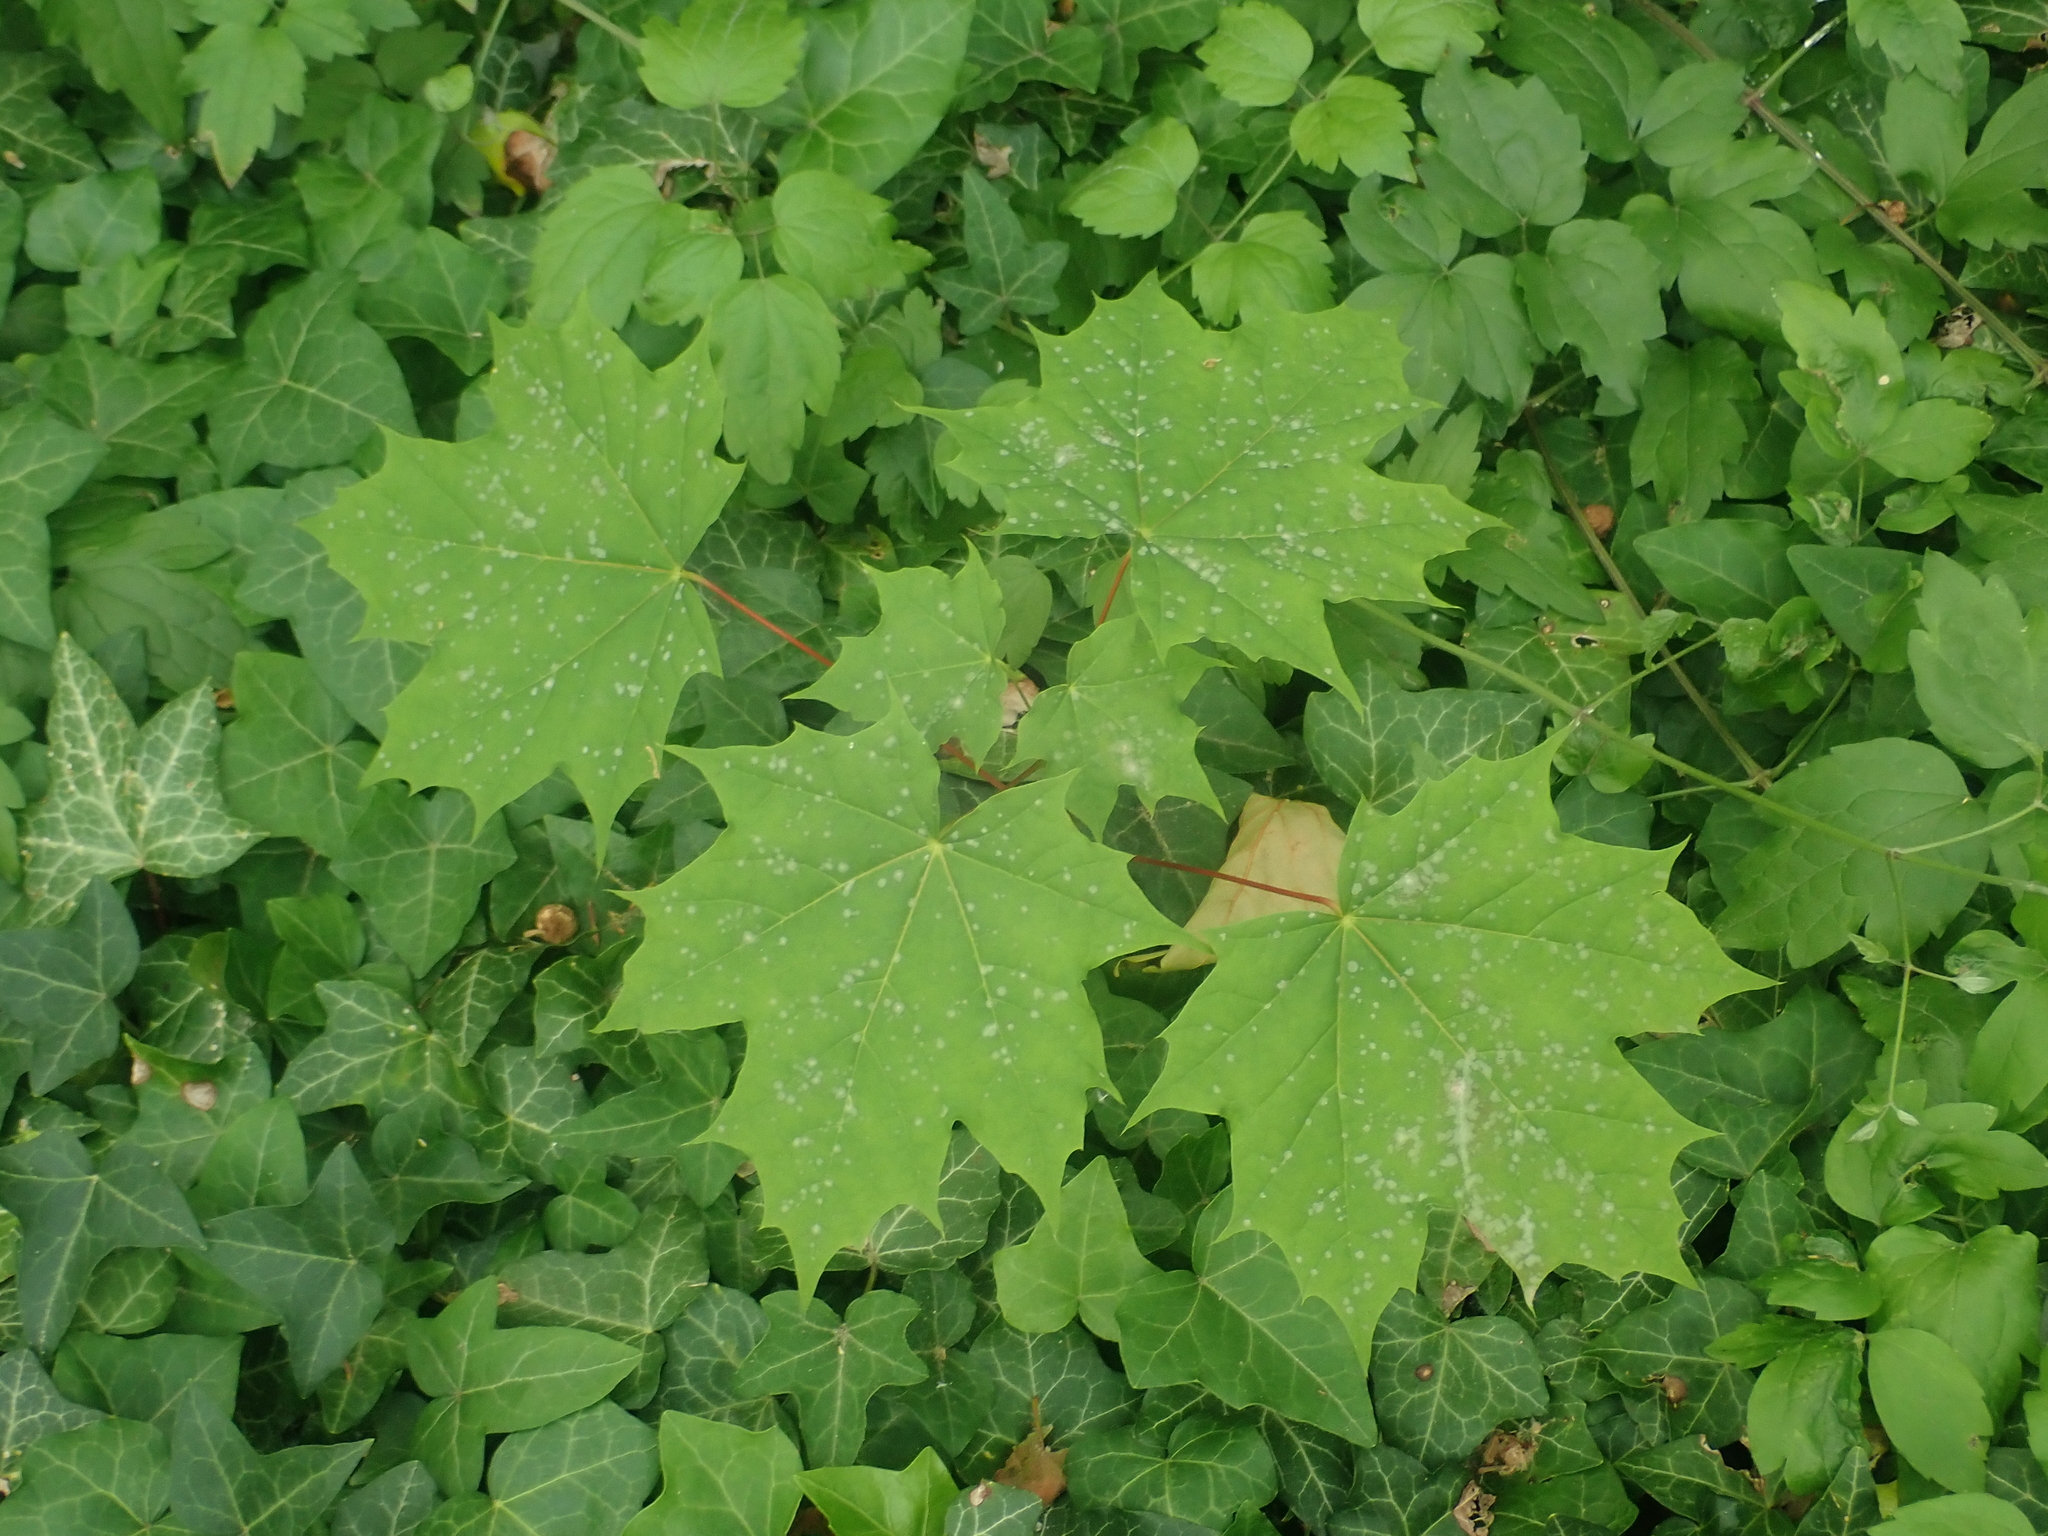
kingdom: Plantae
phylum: Tracheophyta
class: Magnoliopsida
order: Sapindales
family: Sapindaceae
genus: Acer
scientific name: Acer platanoides
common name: Norway maple
